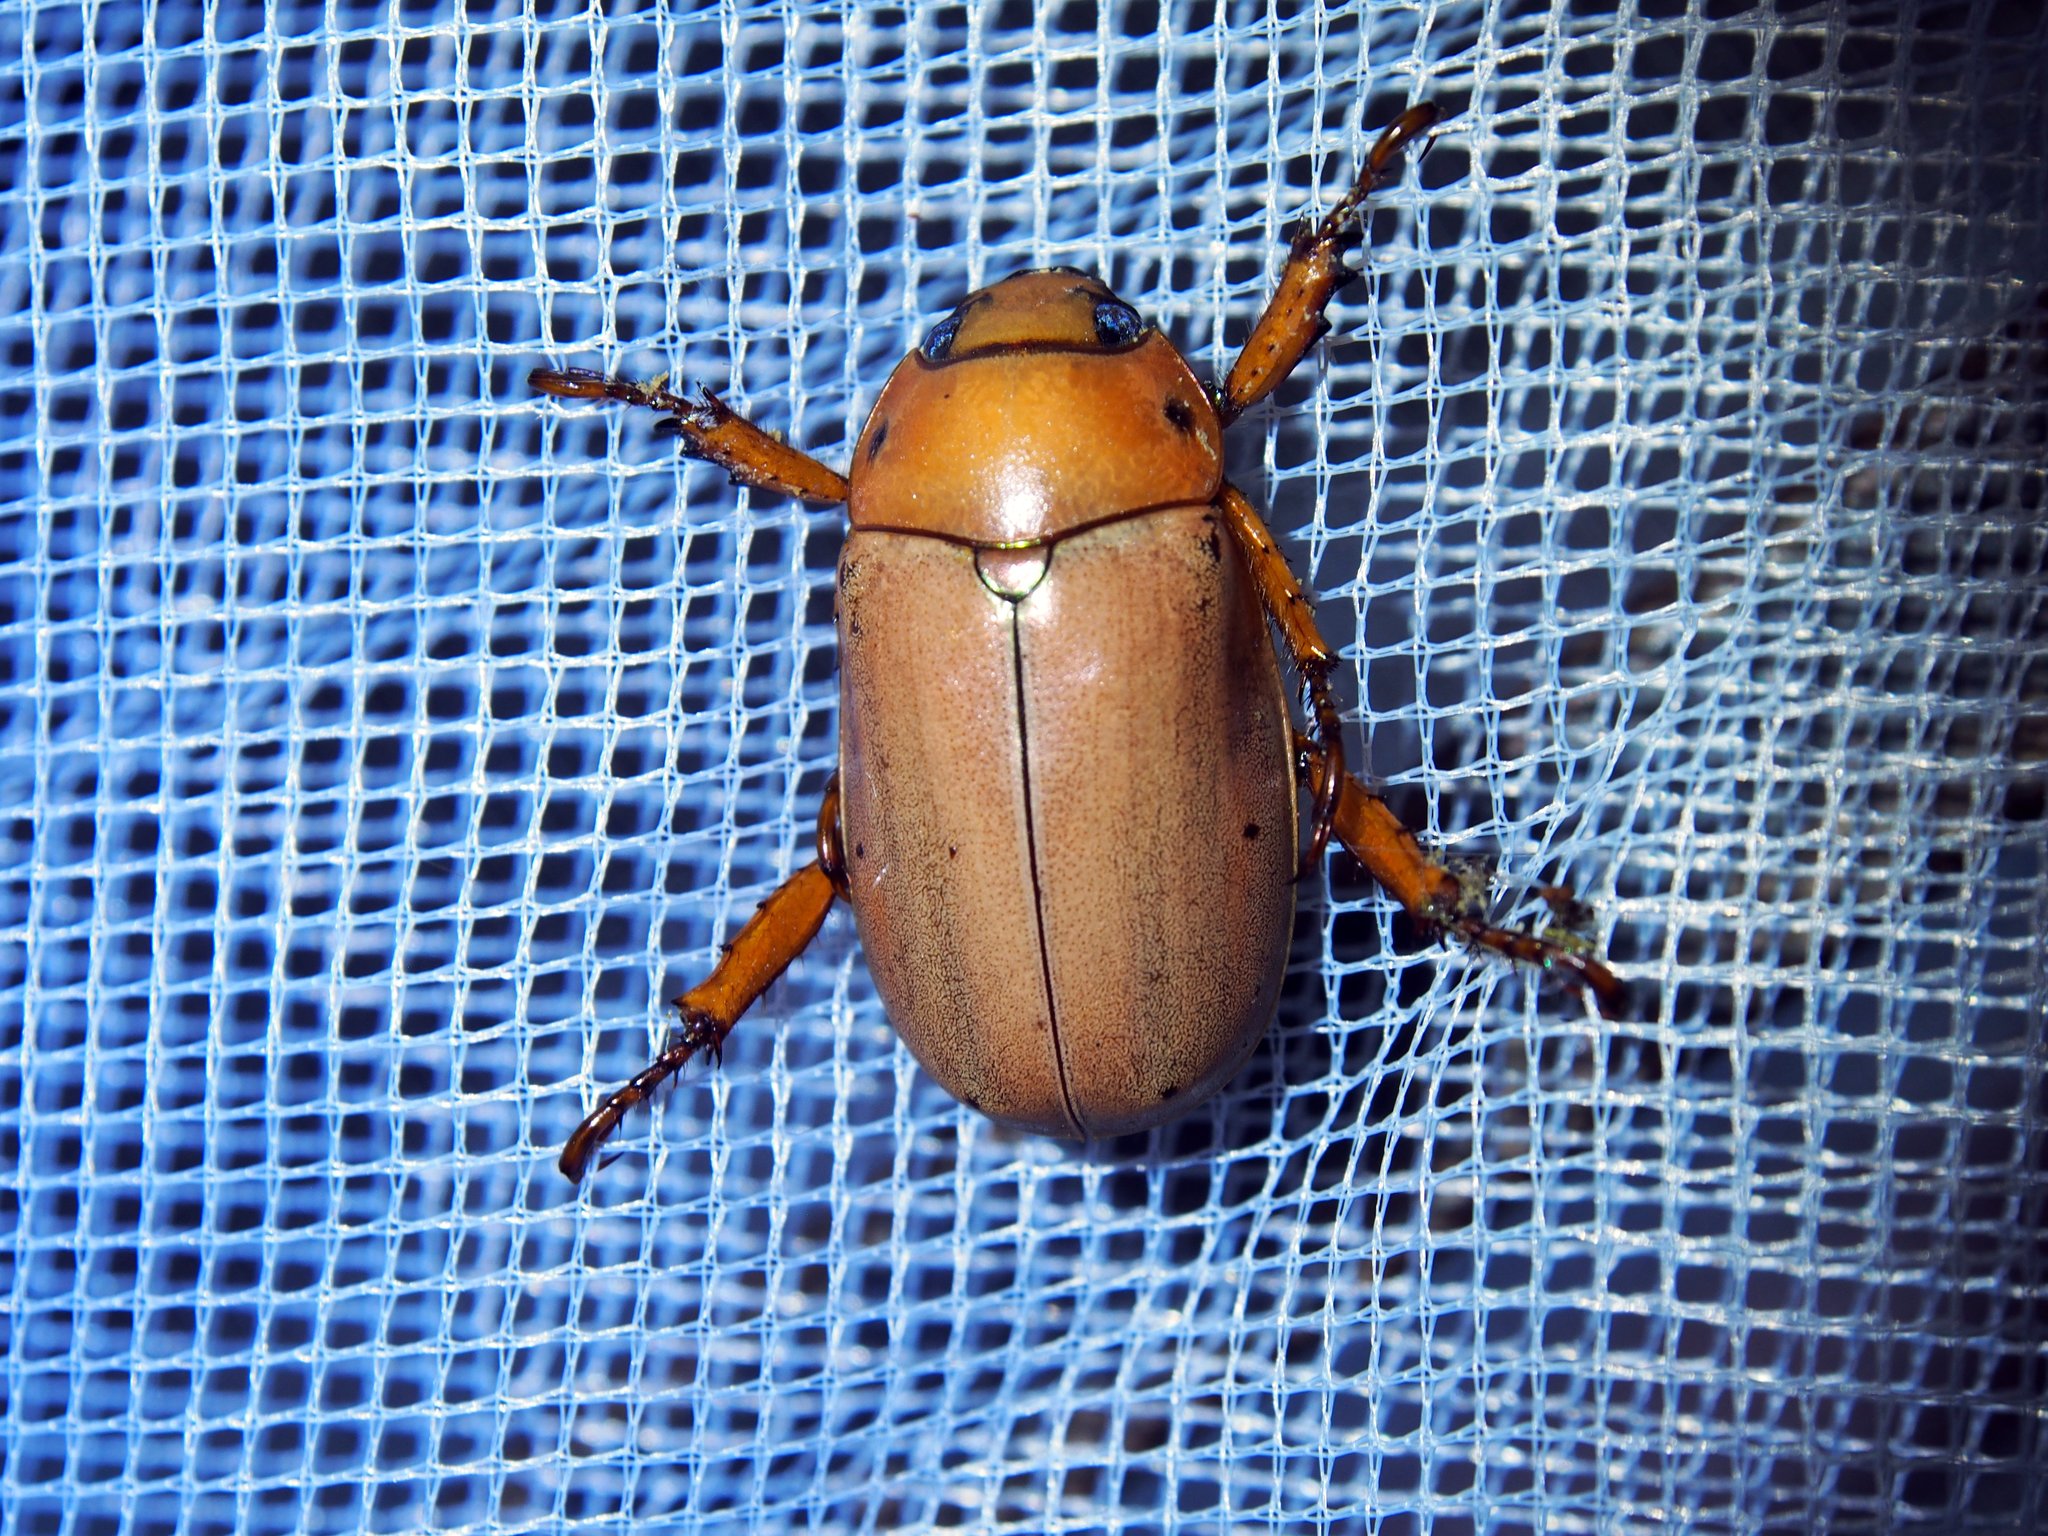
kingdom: Animalia
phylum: Arthropoda
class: Insecta
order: Coleoptera
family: Scarabaeidae
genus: Pelidnota
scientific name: Pelidnota notata
